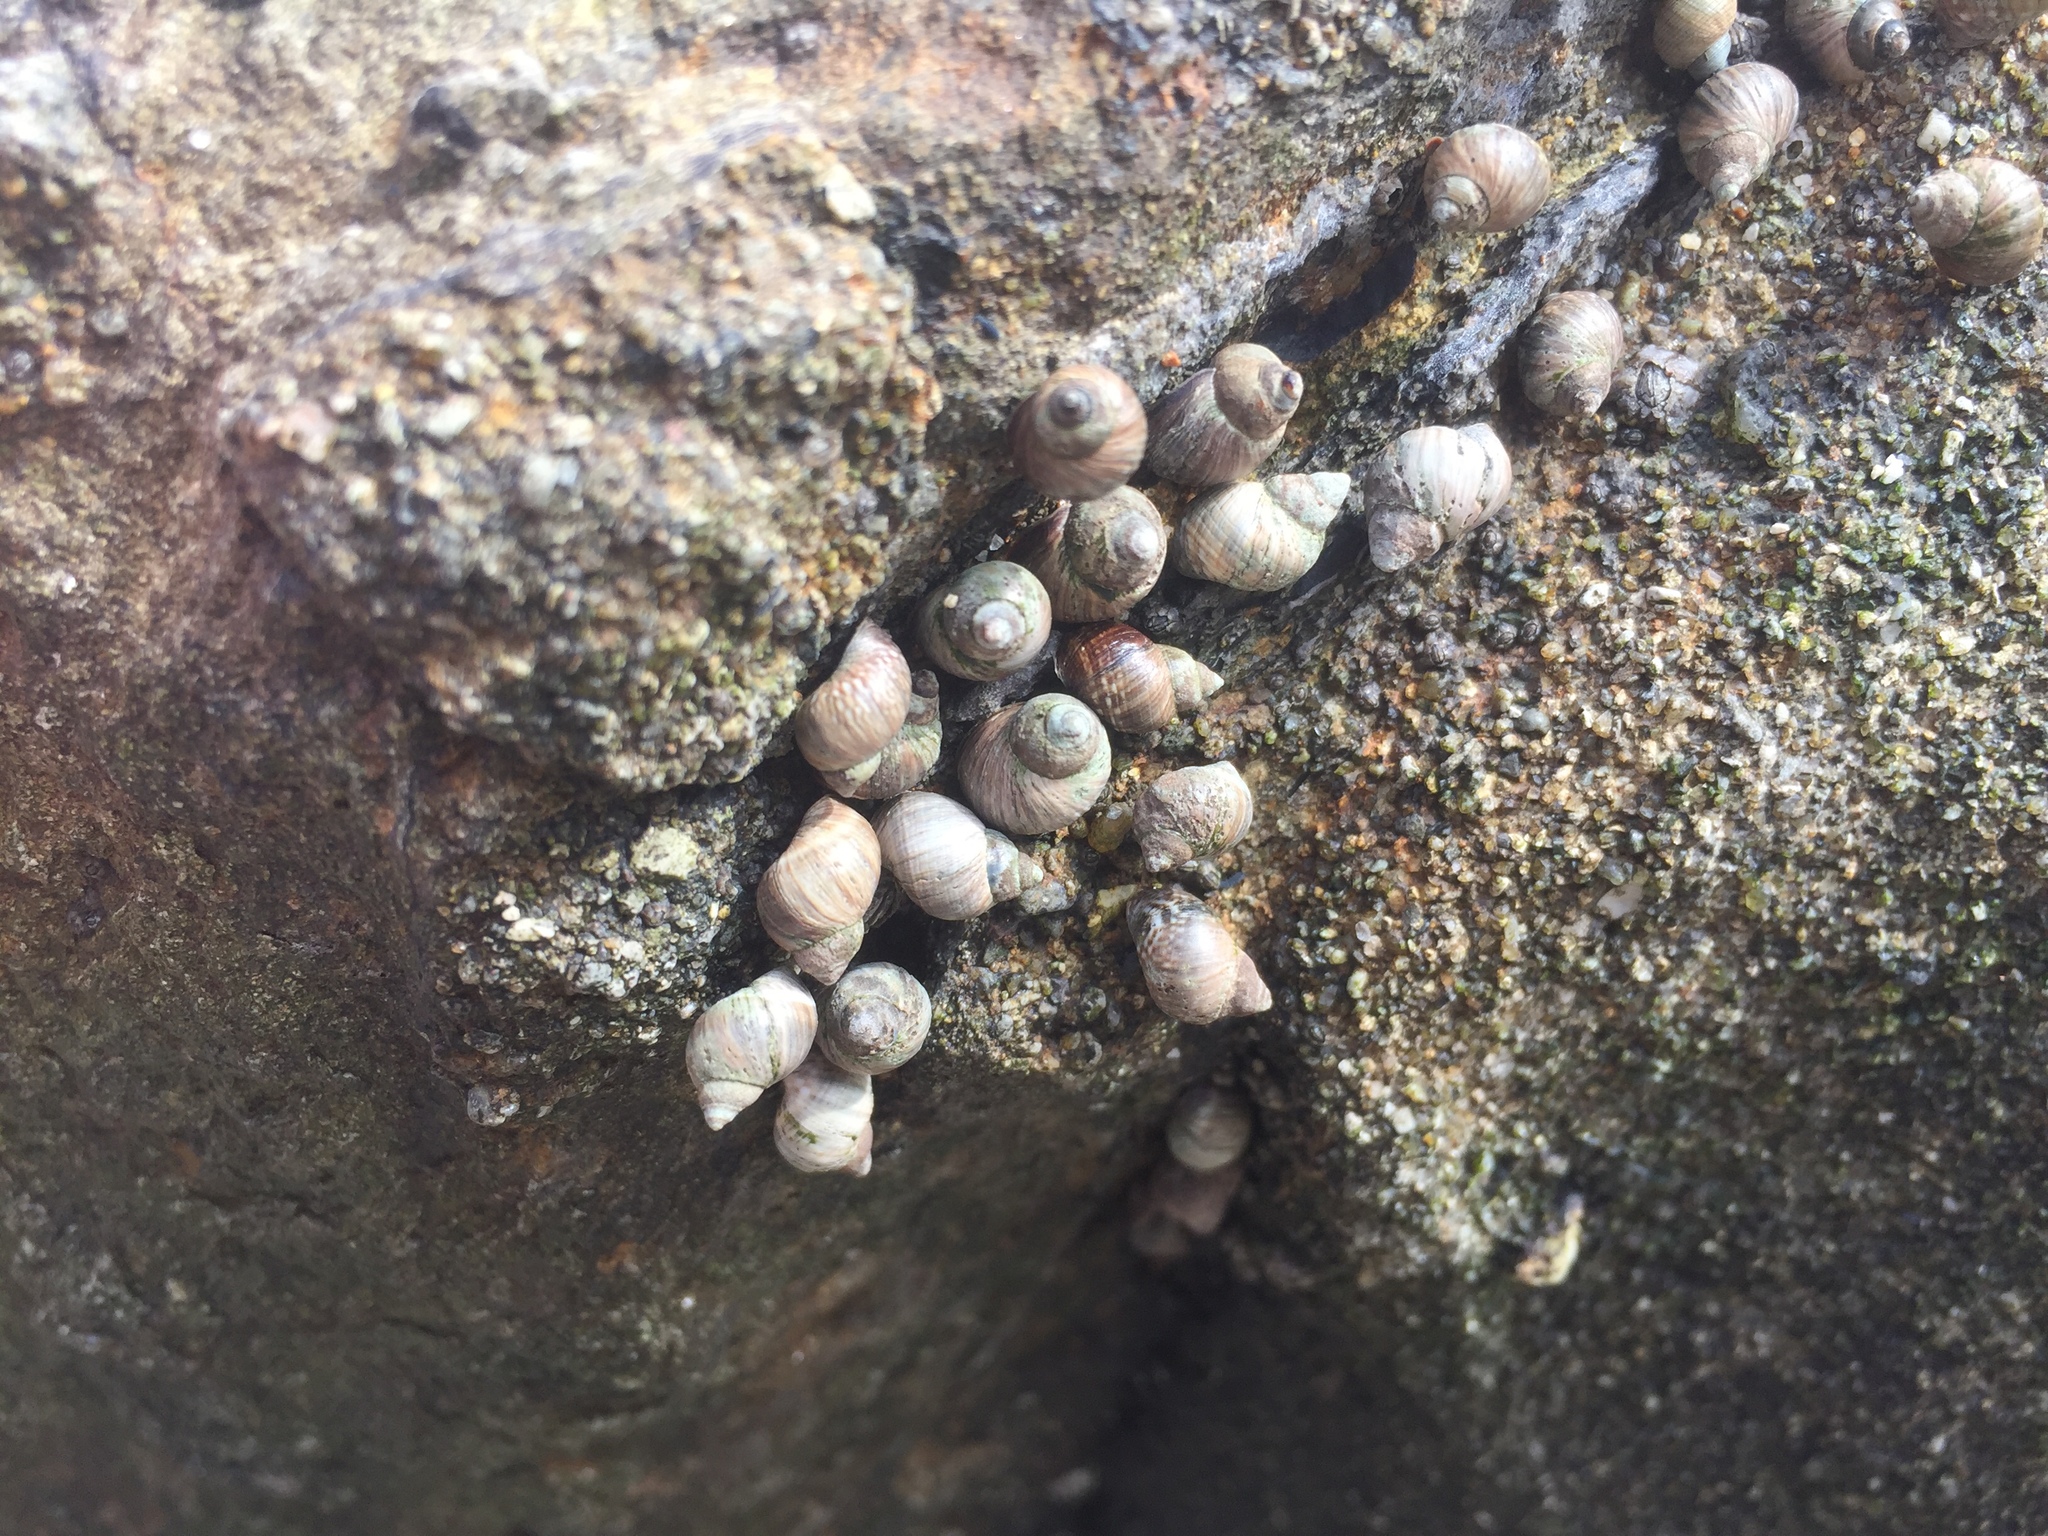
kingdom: Animalia
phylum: Mollusca
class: Gastropoda
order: Littorinimorpha
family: Littorinidae
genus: Austrolittorina
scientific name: Austrolittorina araucana
